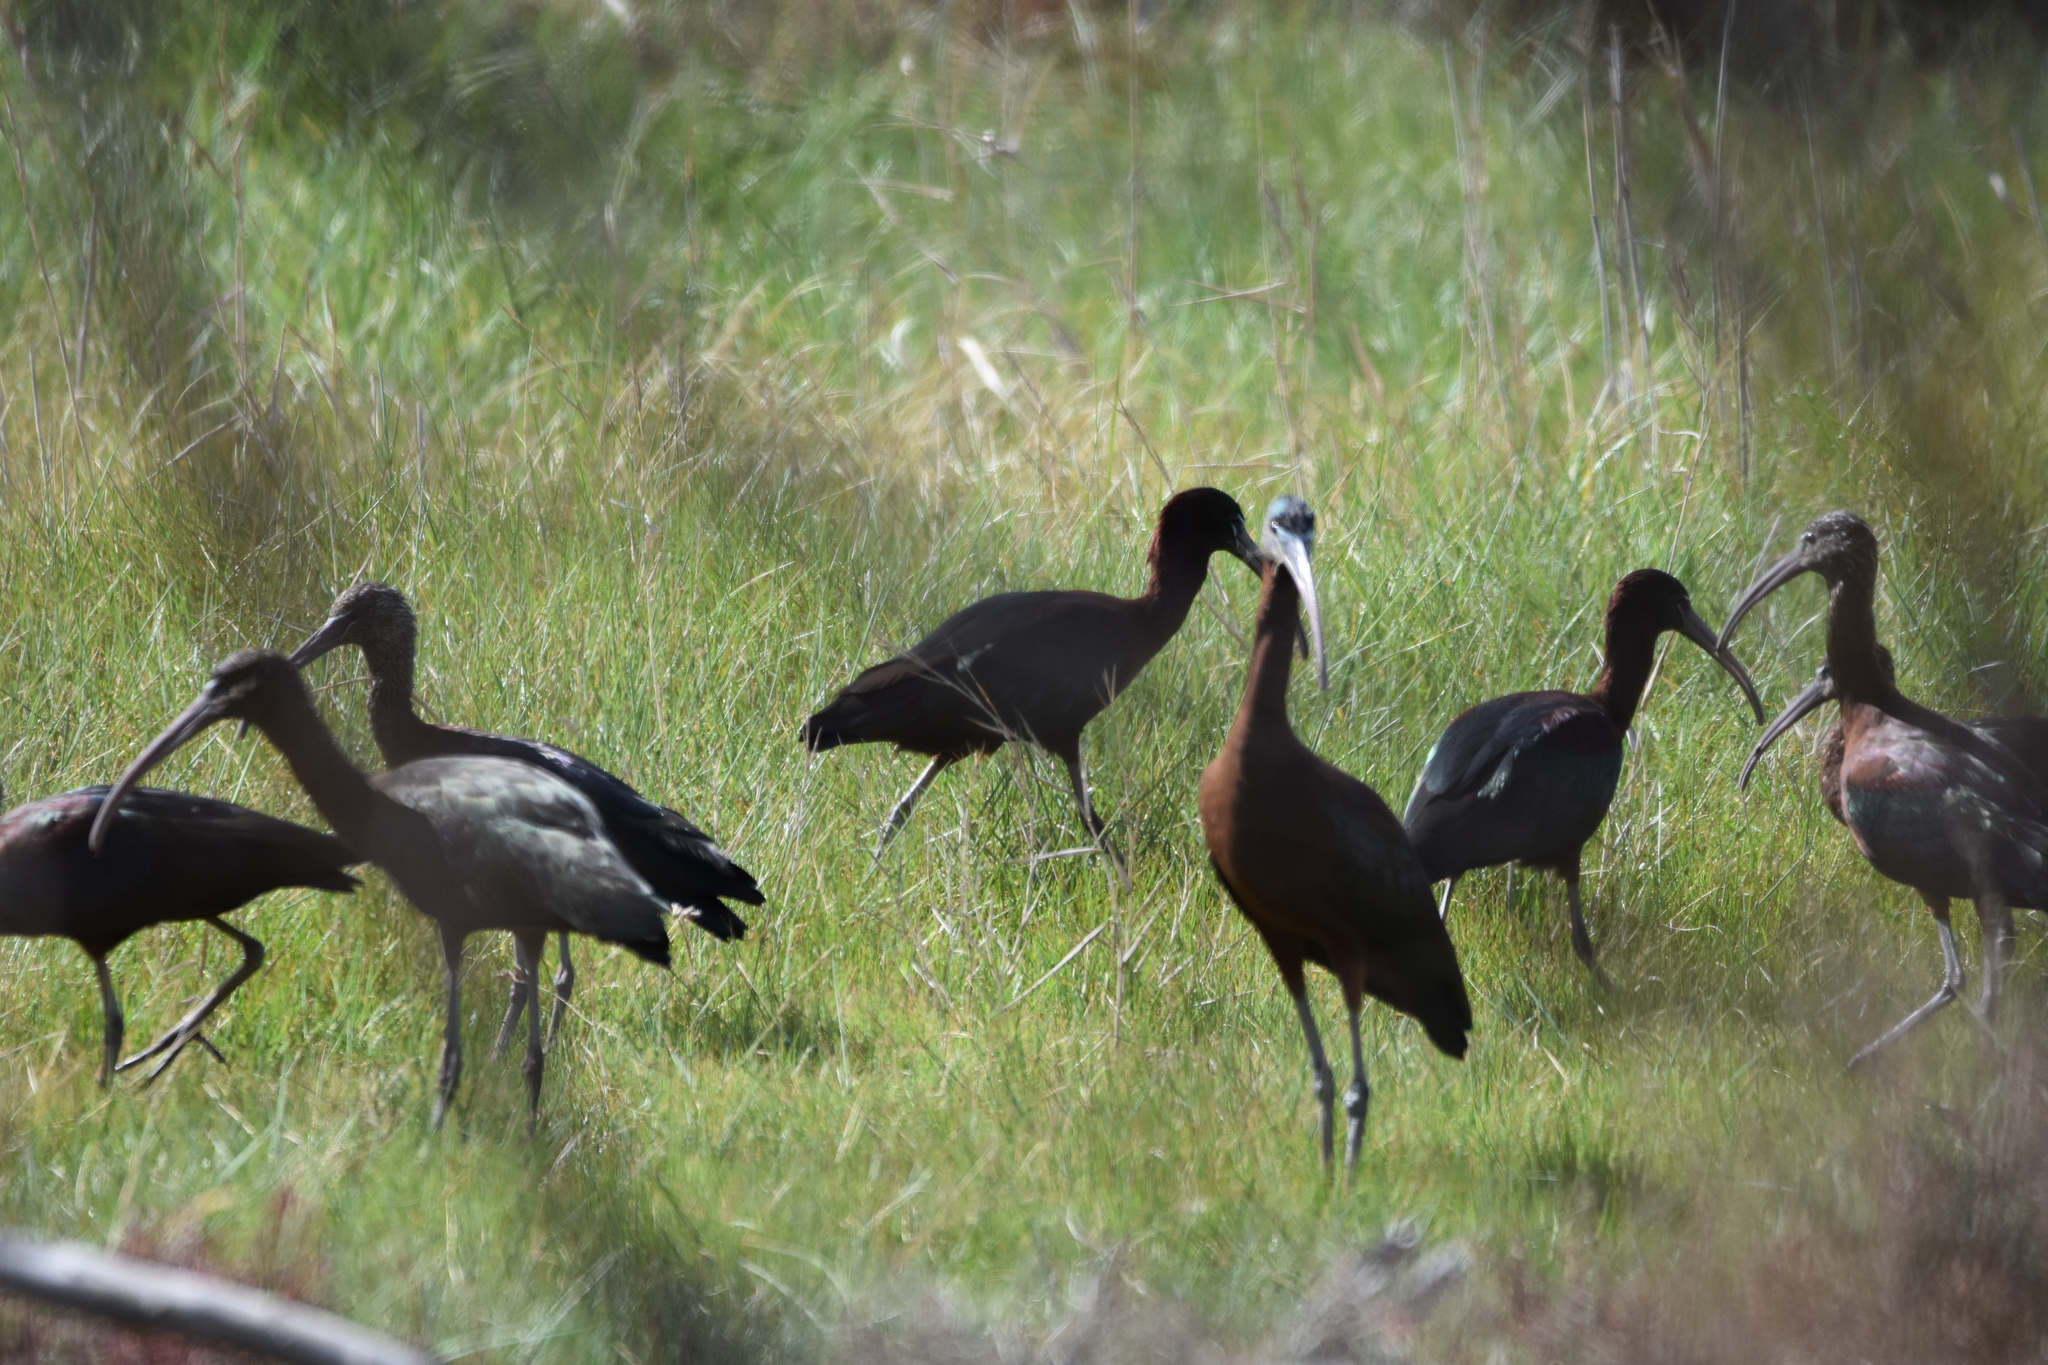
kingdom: Animalia
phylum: Chordata
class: Aves
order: Pelecaniformes
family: Threskiornithidae
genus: Plegadis
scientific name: Plegadis falcinellus
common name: Glossy ibis
